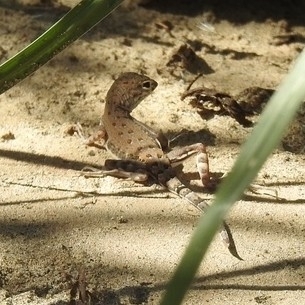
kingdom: Animalia
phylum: Chordata
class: Squamata
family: Phrynosomatidae
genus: Callisaurus
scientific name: Callisaurus draconoides
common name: Zebra-tailed lizard
